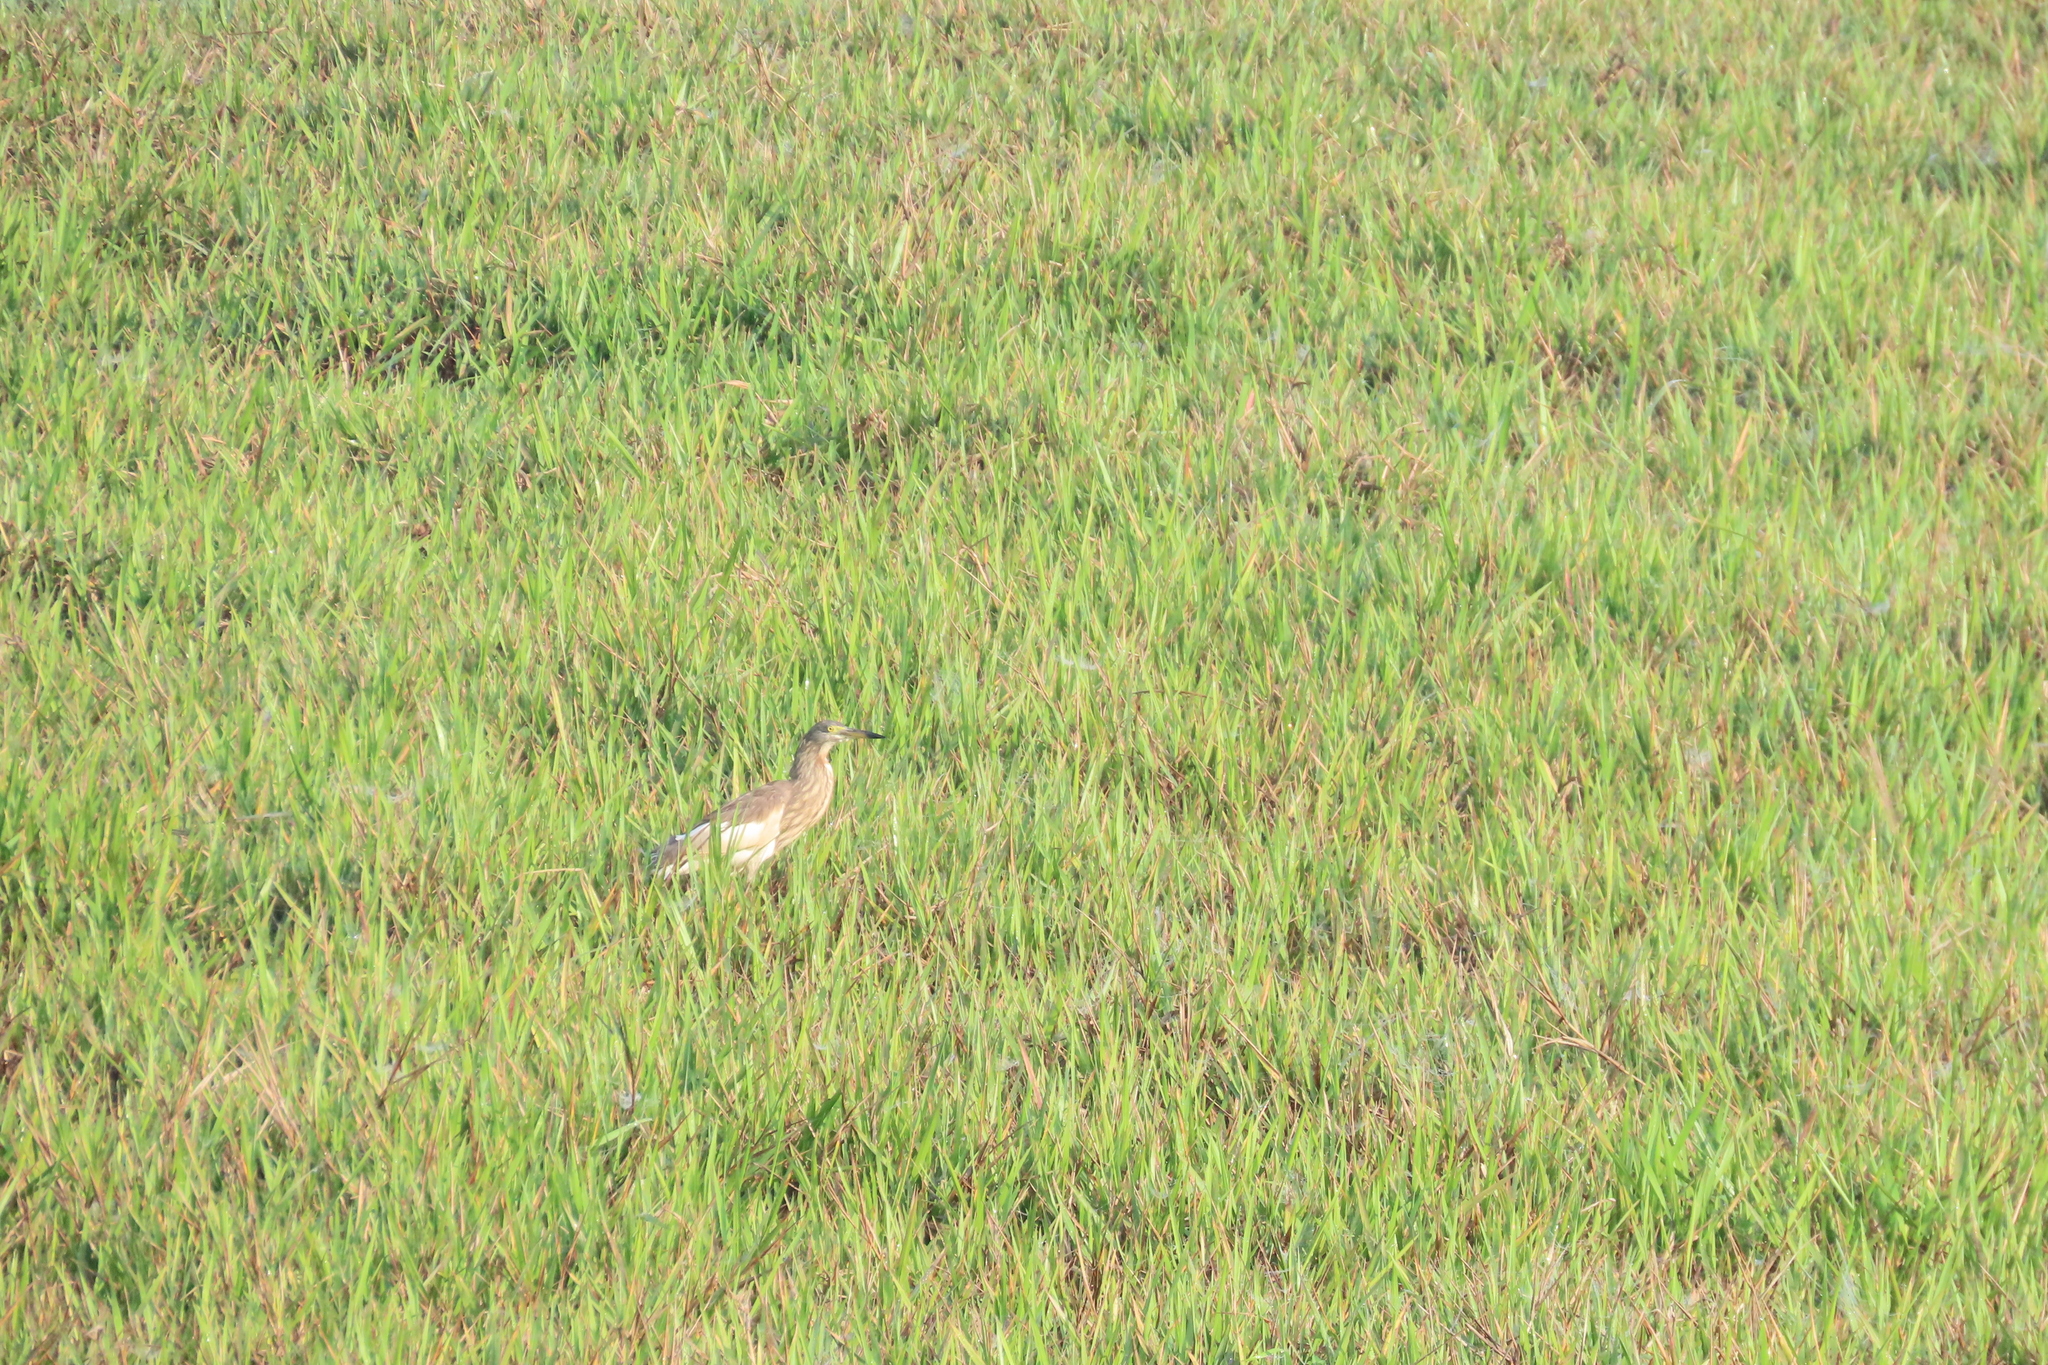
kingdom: Animalia
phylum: Chordata
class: Aves
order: Pelecaniformes
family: Ardeidae
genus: Ardeola
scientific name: Ardeola grayii
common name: Indian pond heron
